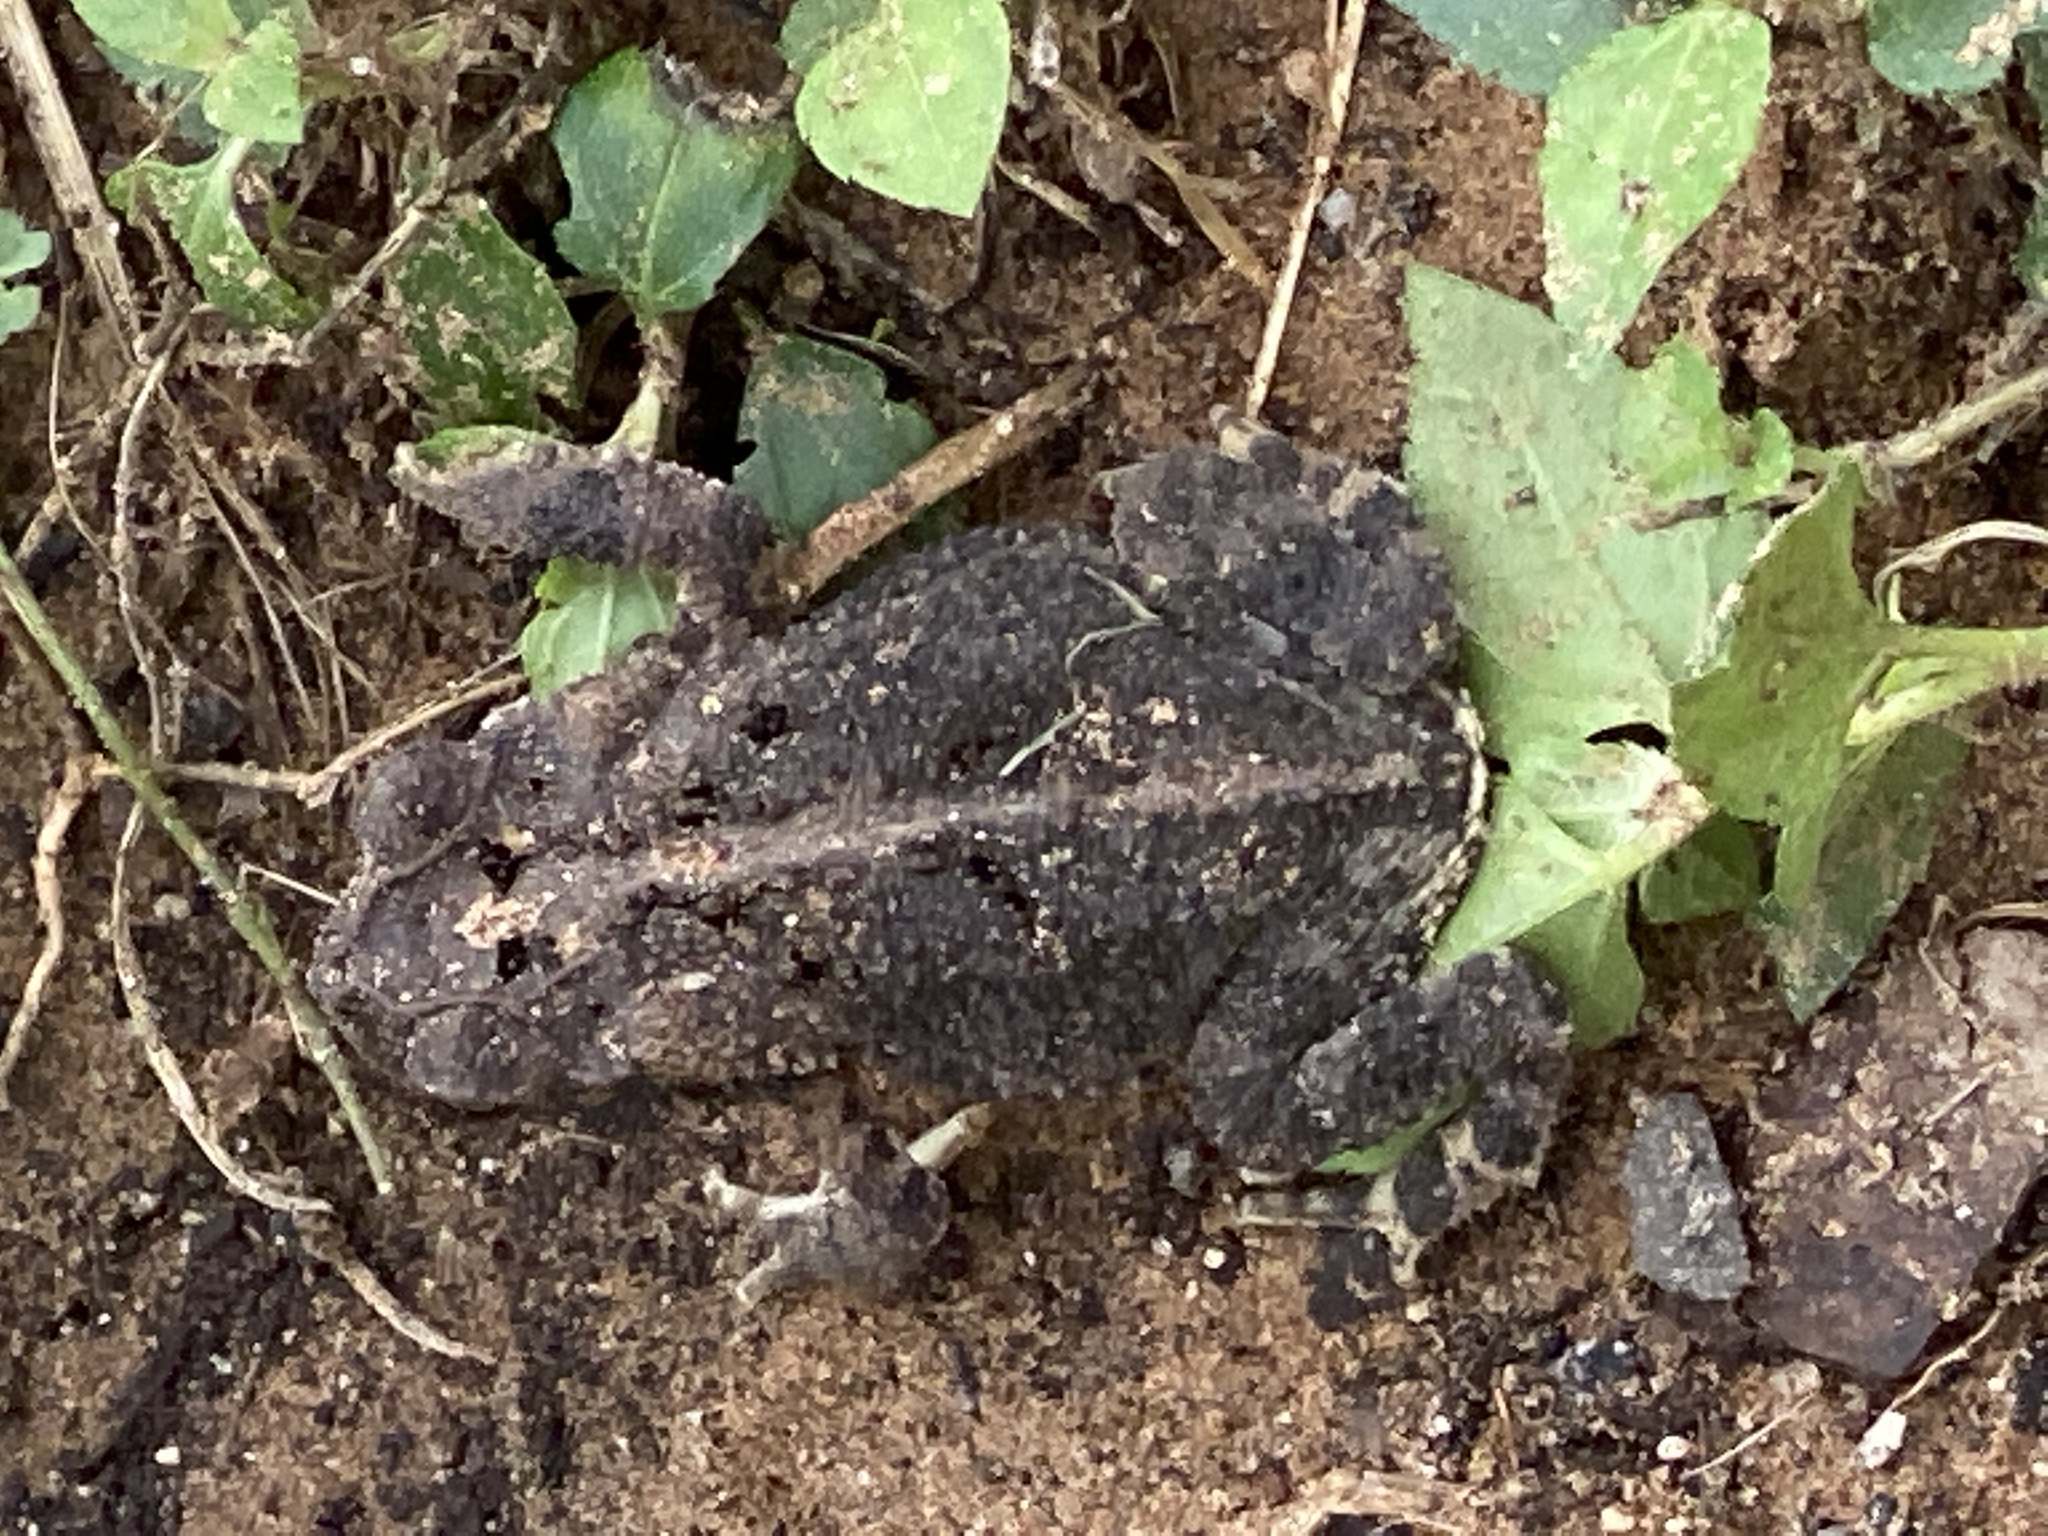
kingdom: Animalia
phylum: Chordata
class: Amphibia
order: Anura
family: Bufonidae
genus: Incilius
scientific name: Incilius nebulifer
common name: Gulf coast toad
